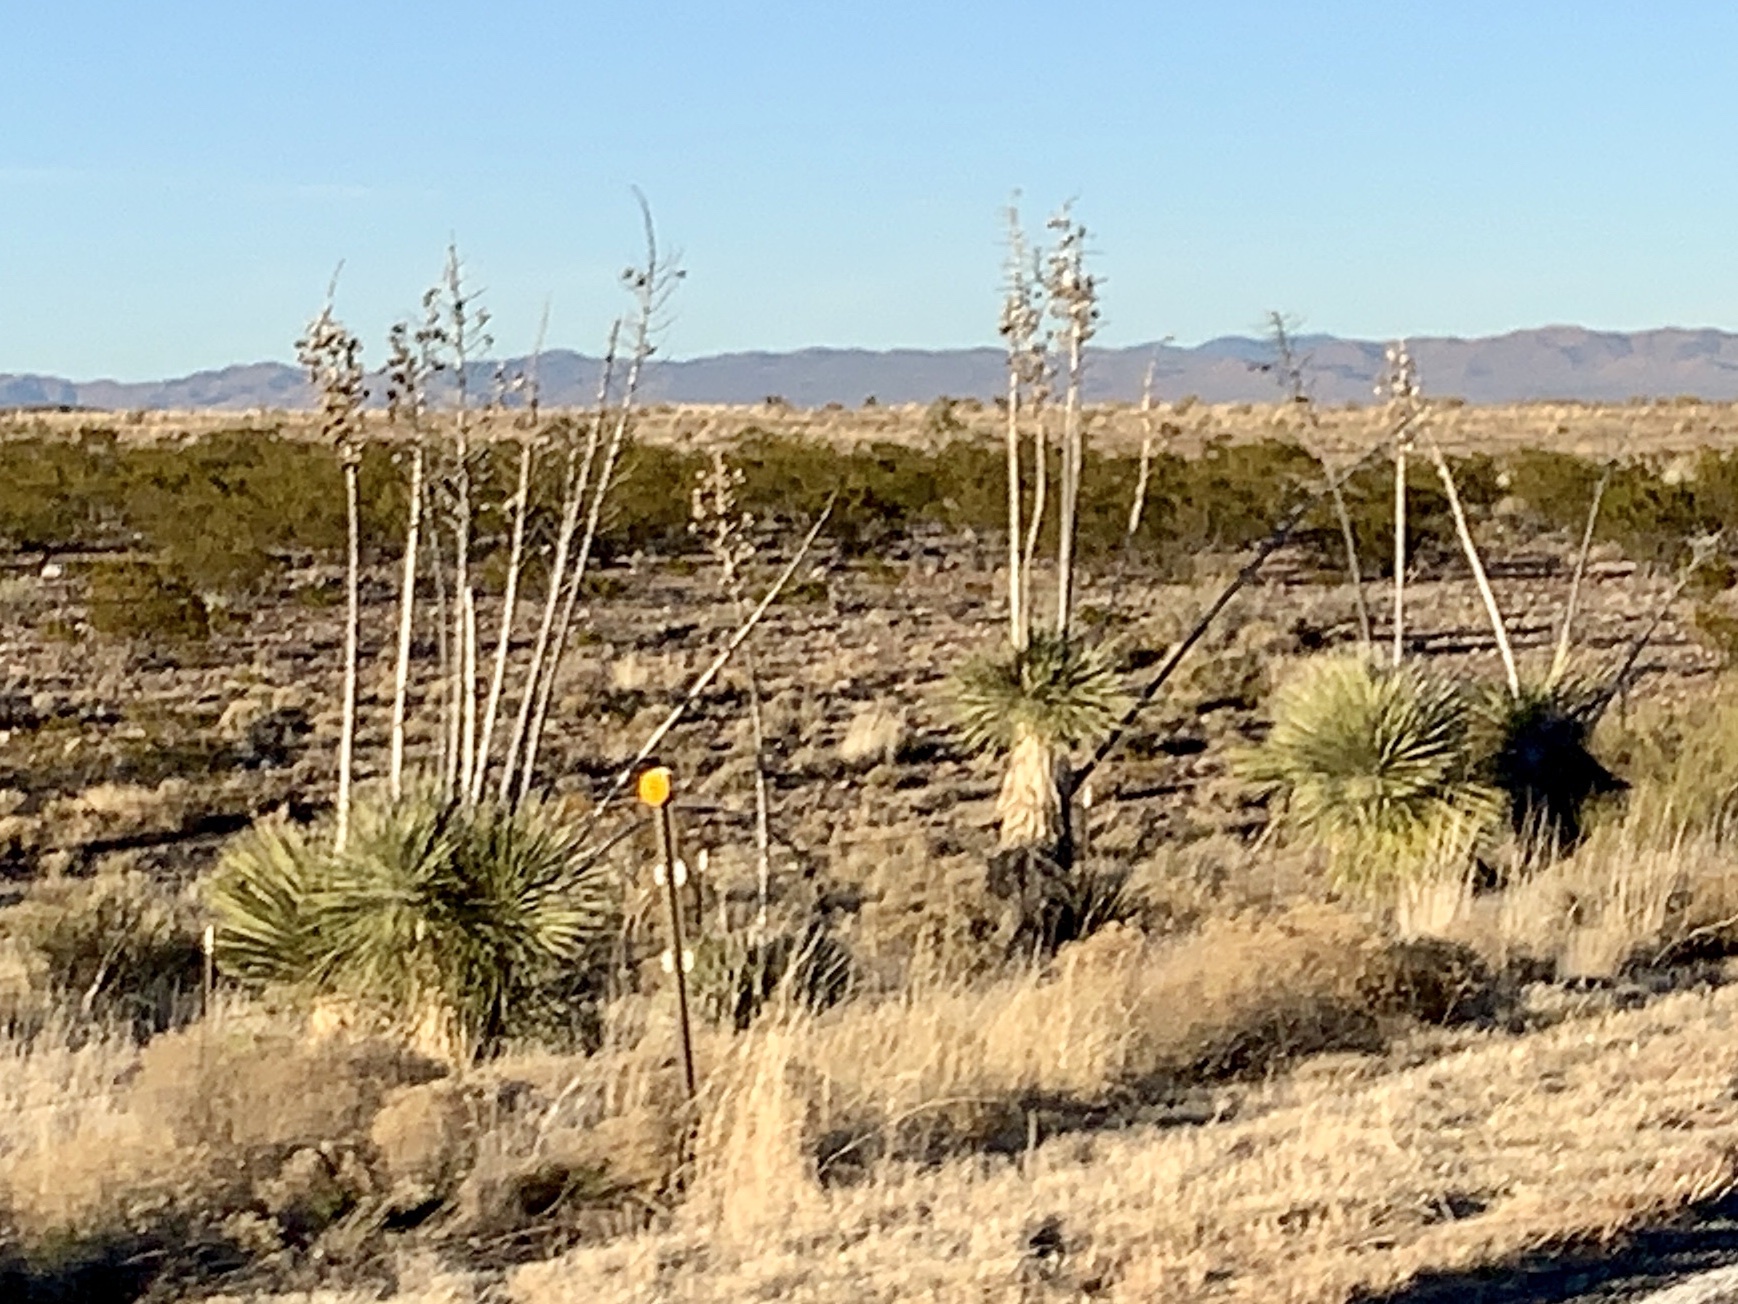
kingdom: Plantae
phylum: Tracheophyta
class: Liliopsida
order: Asparagales
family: Asparagaceae
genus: Yucca
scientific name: Yucca elata
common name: Palmella
